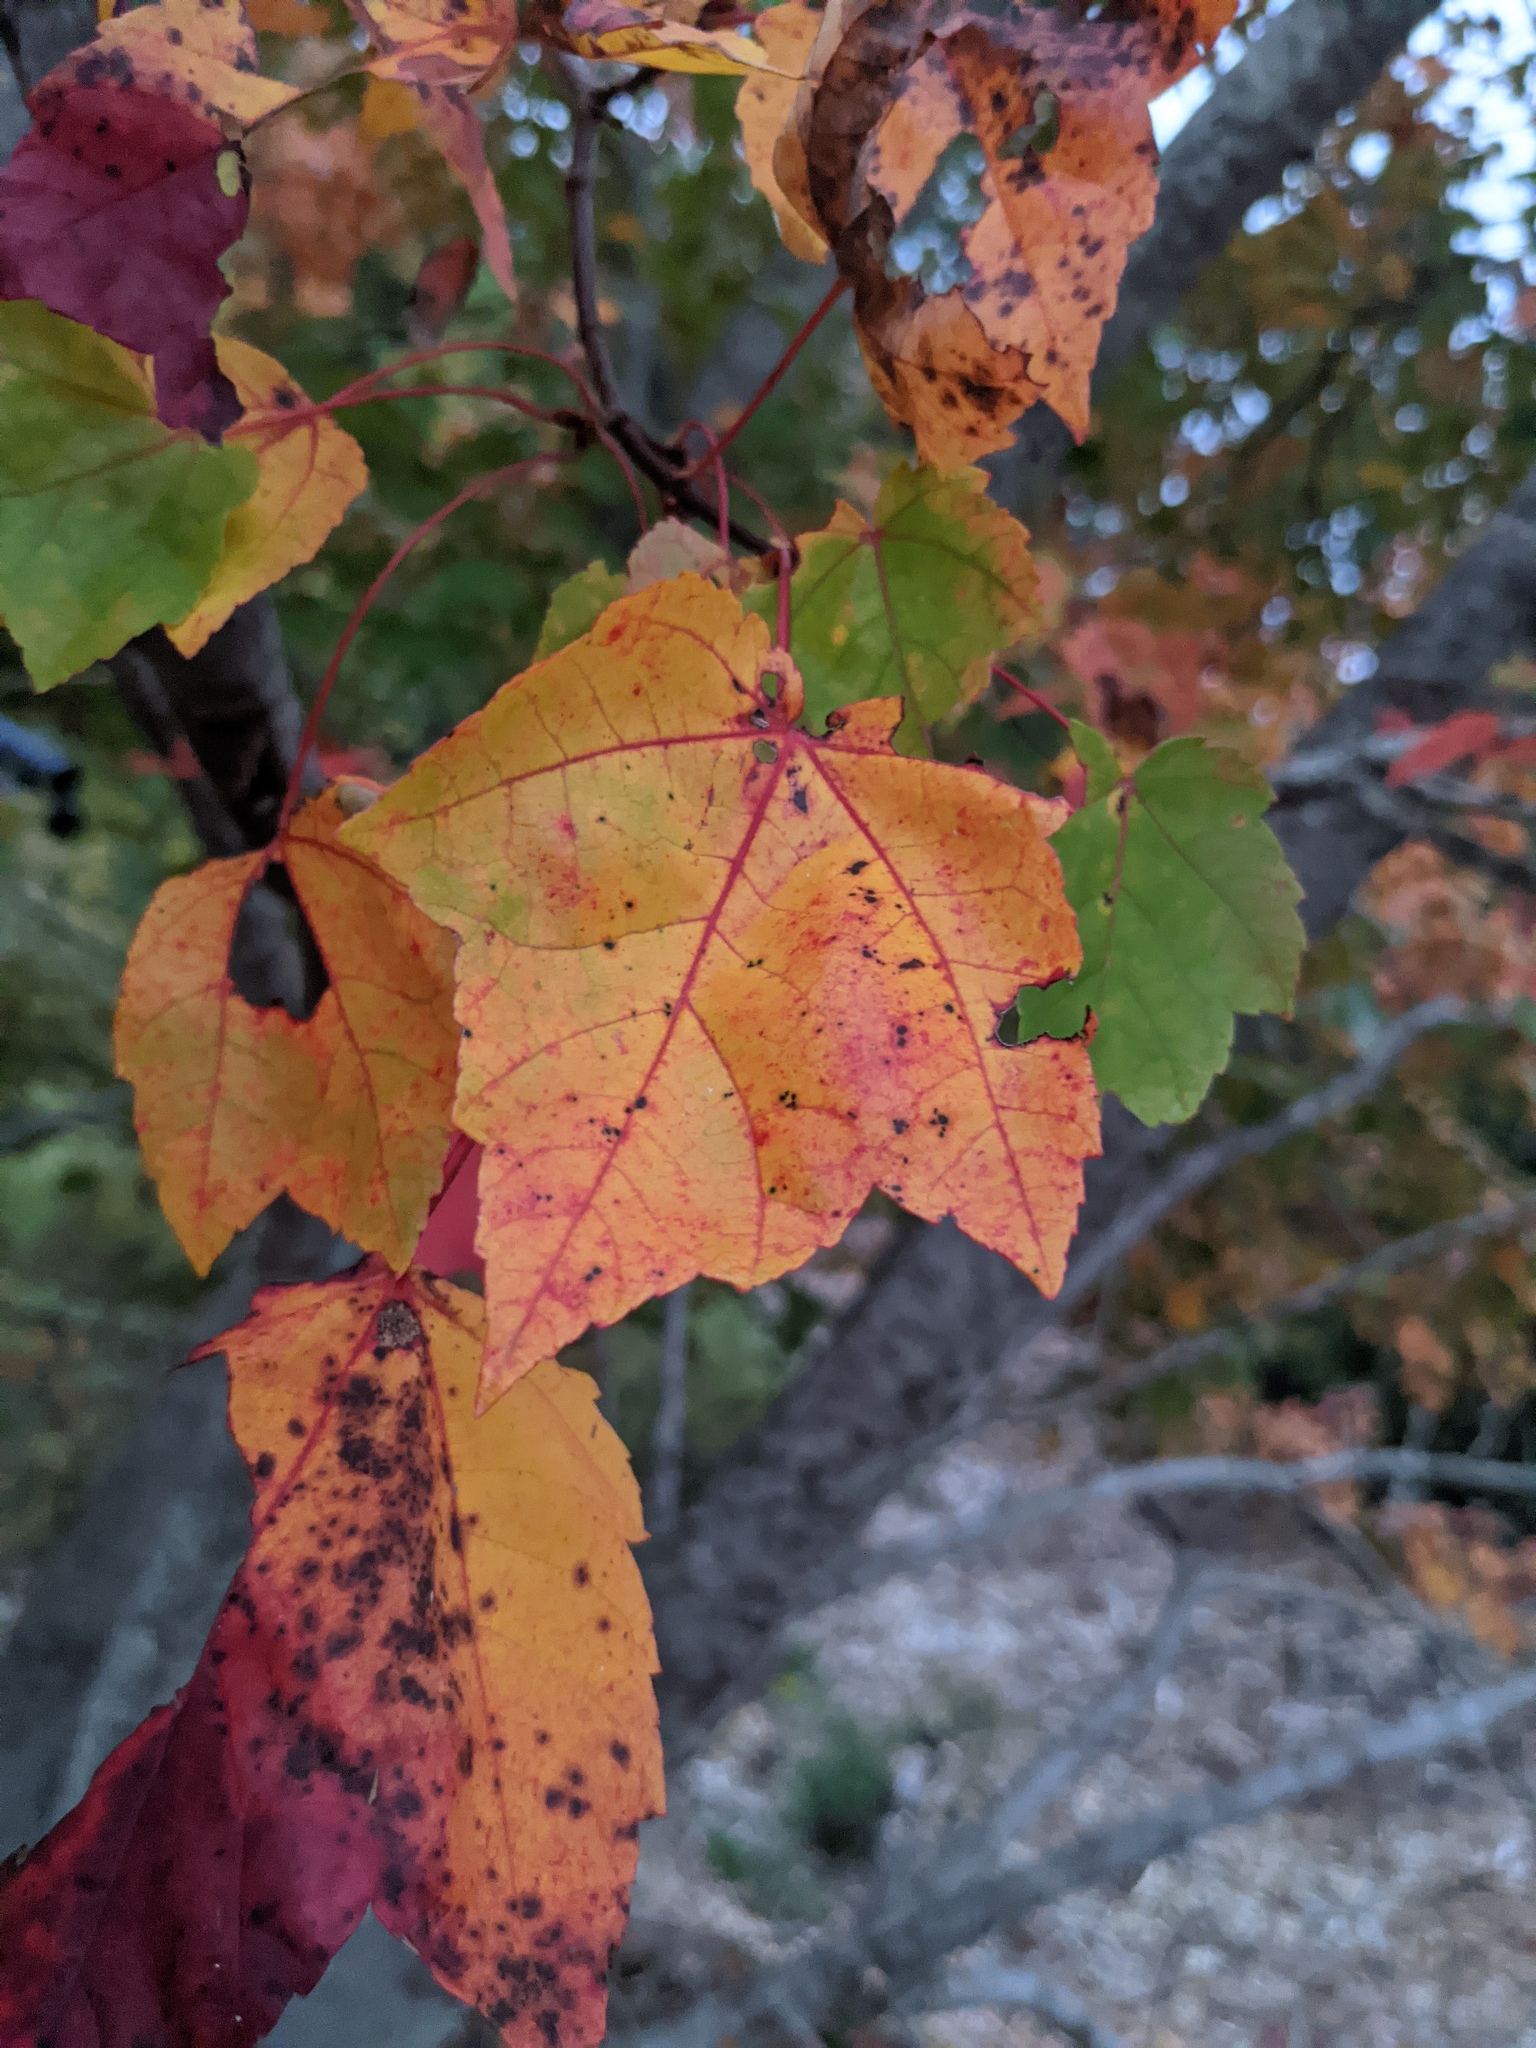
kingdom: Plantae
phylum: Tracheophyta
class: Magnoliopsida
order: Sapindales
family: Sapindaceae
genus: Acer
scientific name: Acer rubrum
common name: Red maple
